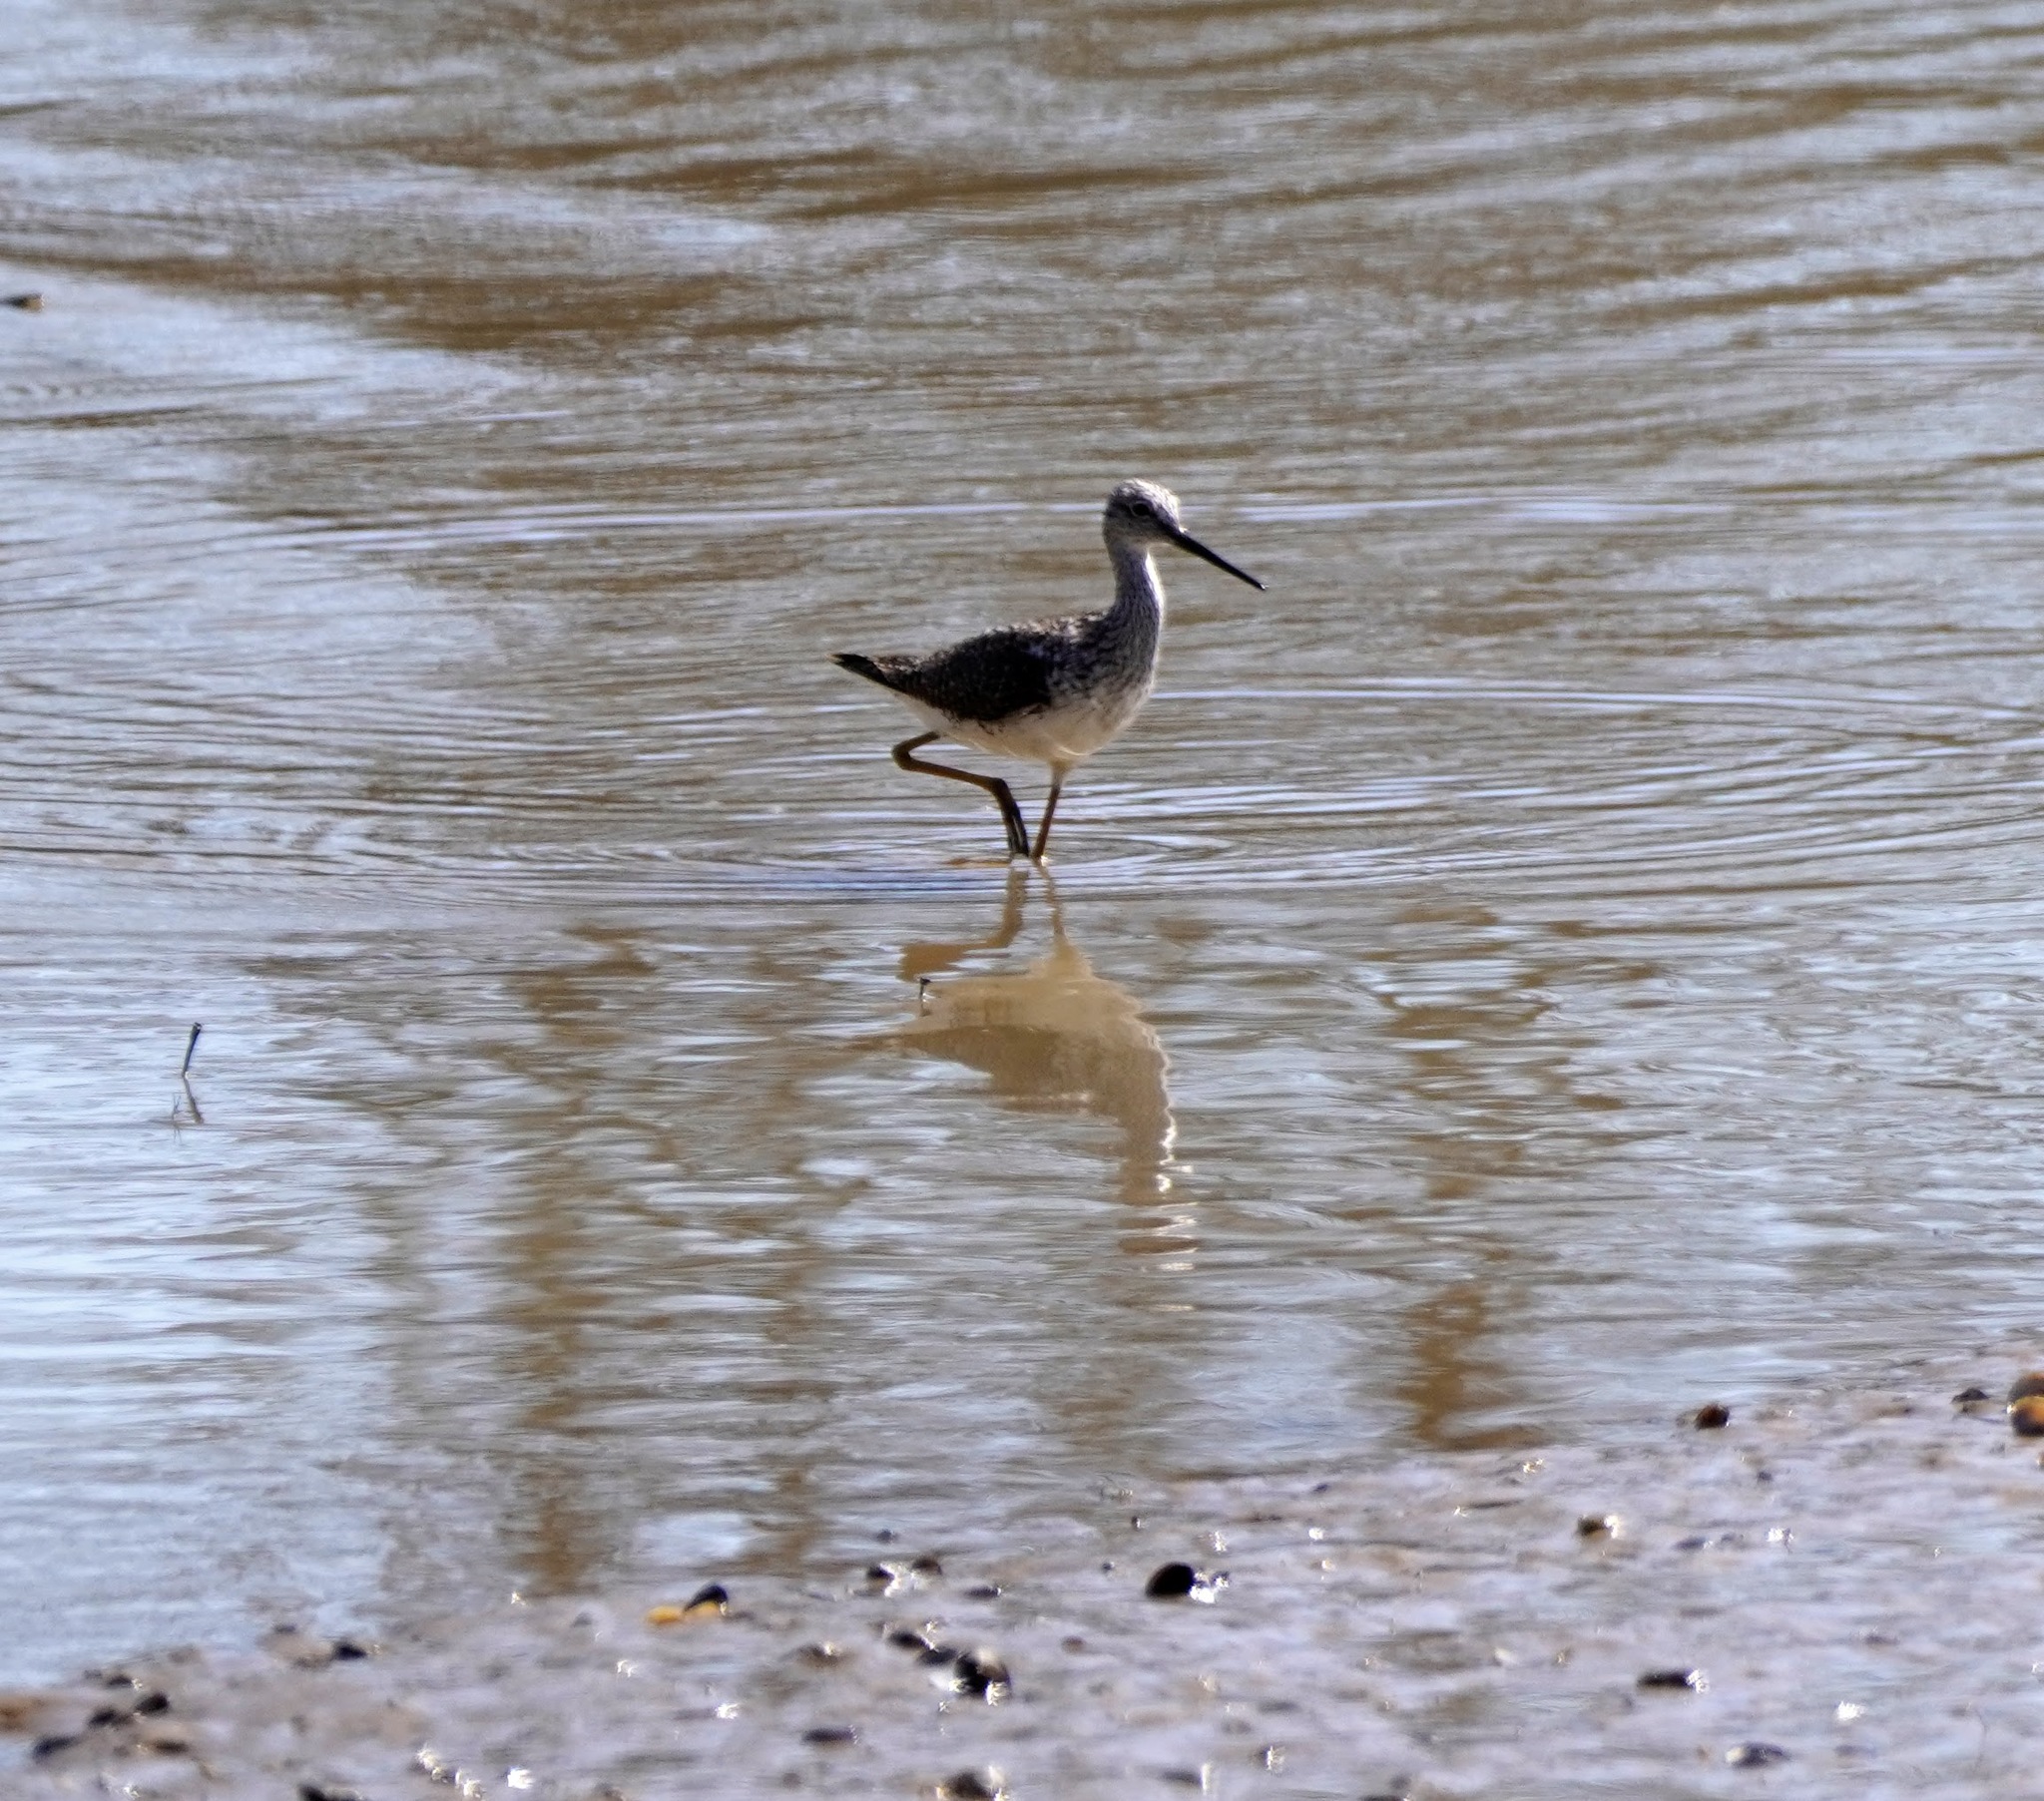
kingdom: Animalia
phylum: Chordata
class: Aves
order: Charadriiformes
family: Scolopacidae
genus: Tringa
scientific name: Tringa melanoleuca
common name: Greater yellowlegs
